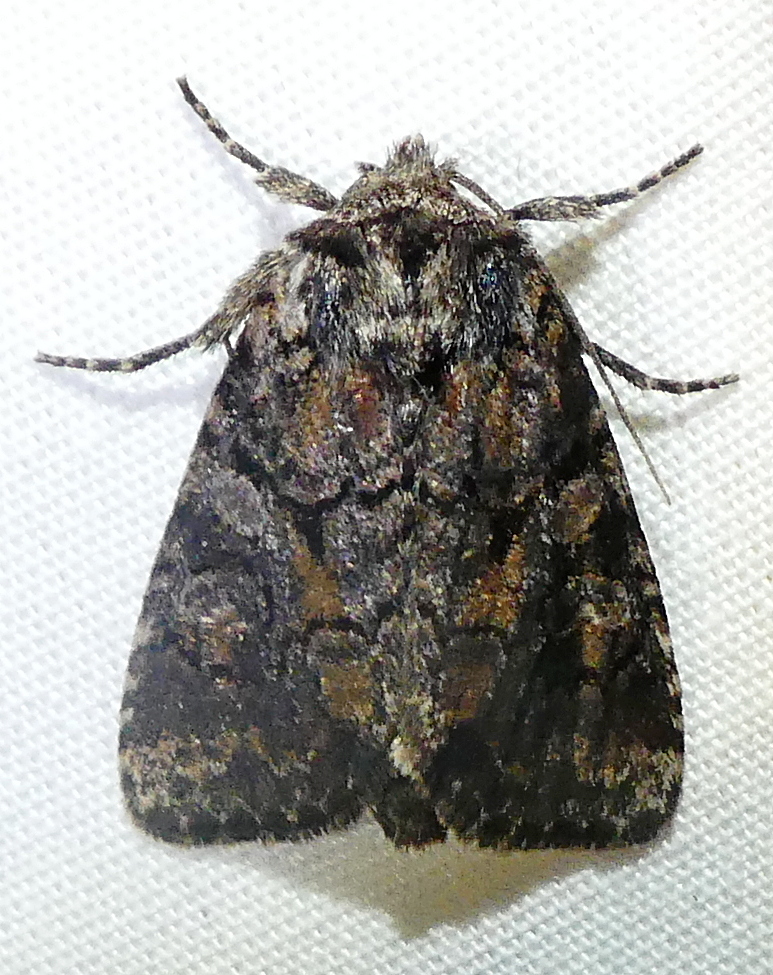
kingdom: Animalia
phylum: Arthropoda
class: Insecta
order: Lepidoptera
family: Noctuidae
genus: Orthodes
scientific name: Orthodes detracta
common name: Disparaged arches moth
